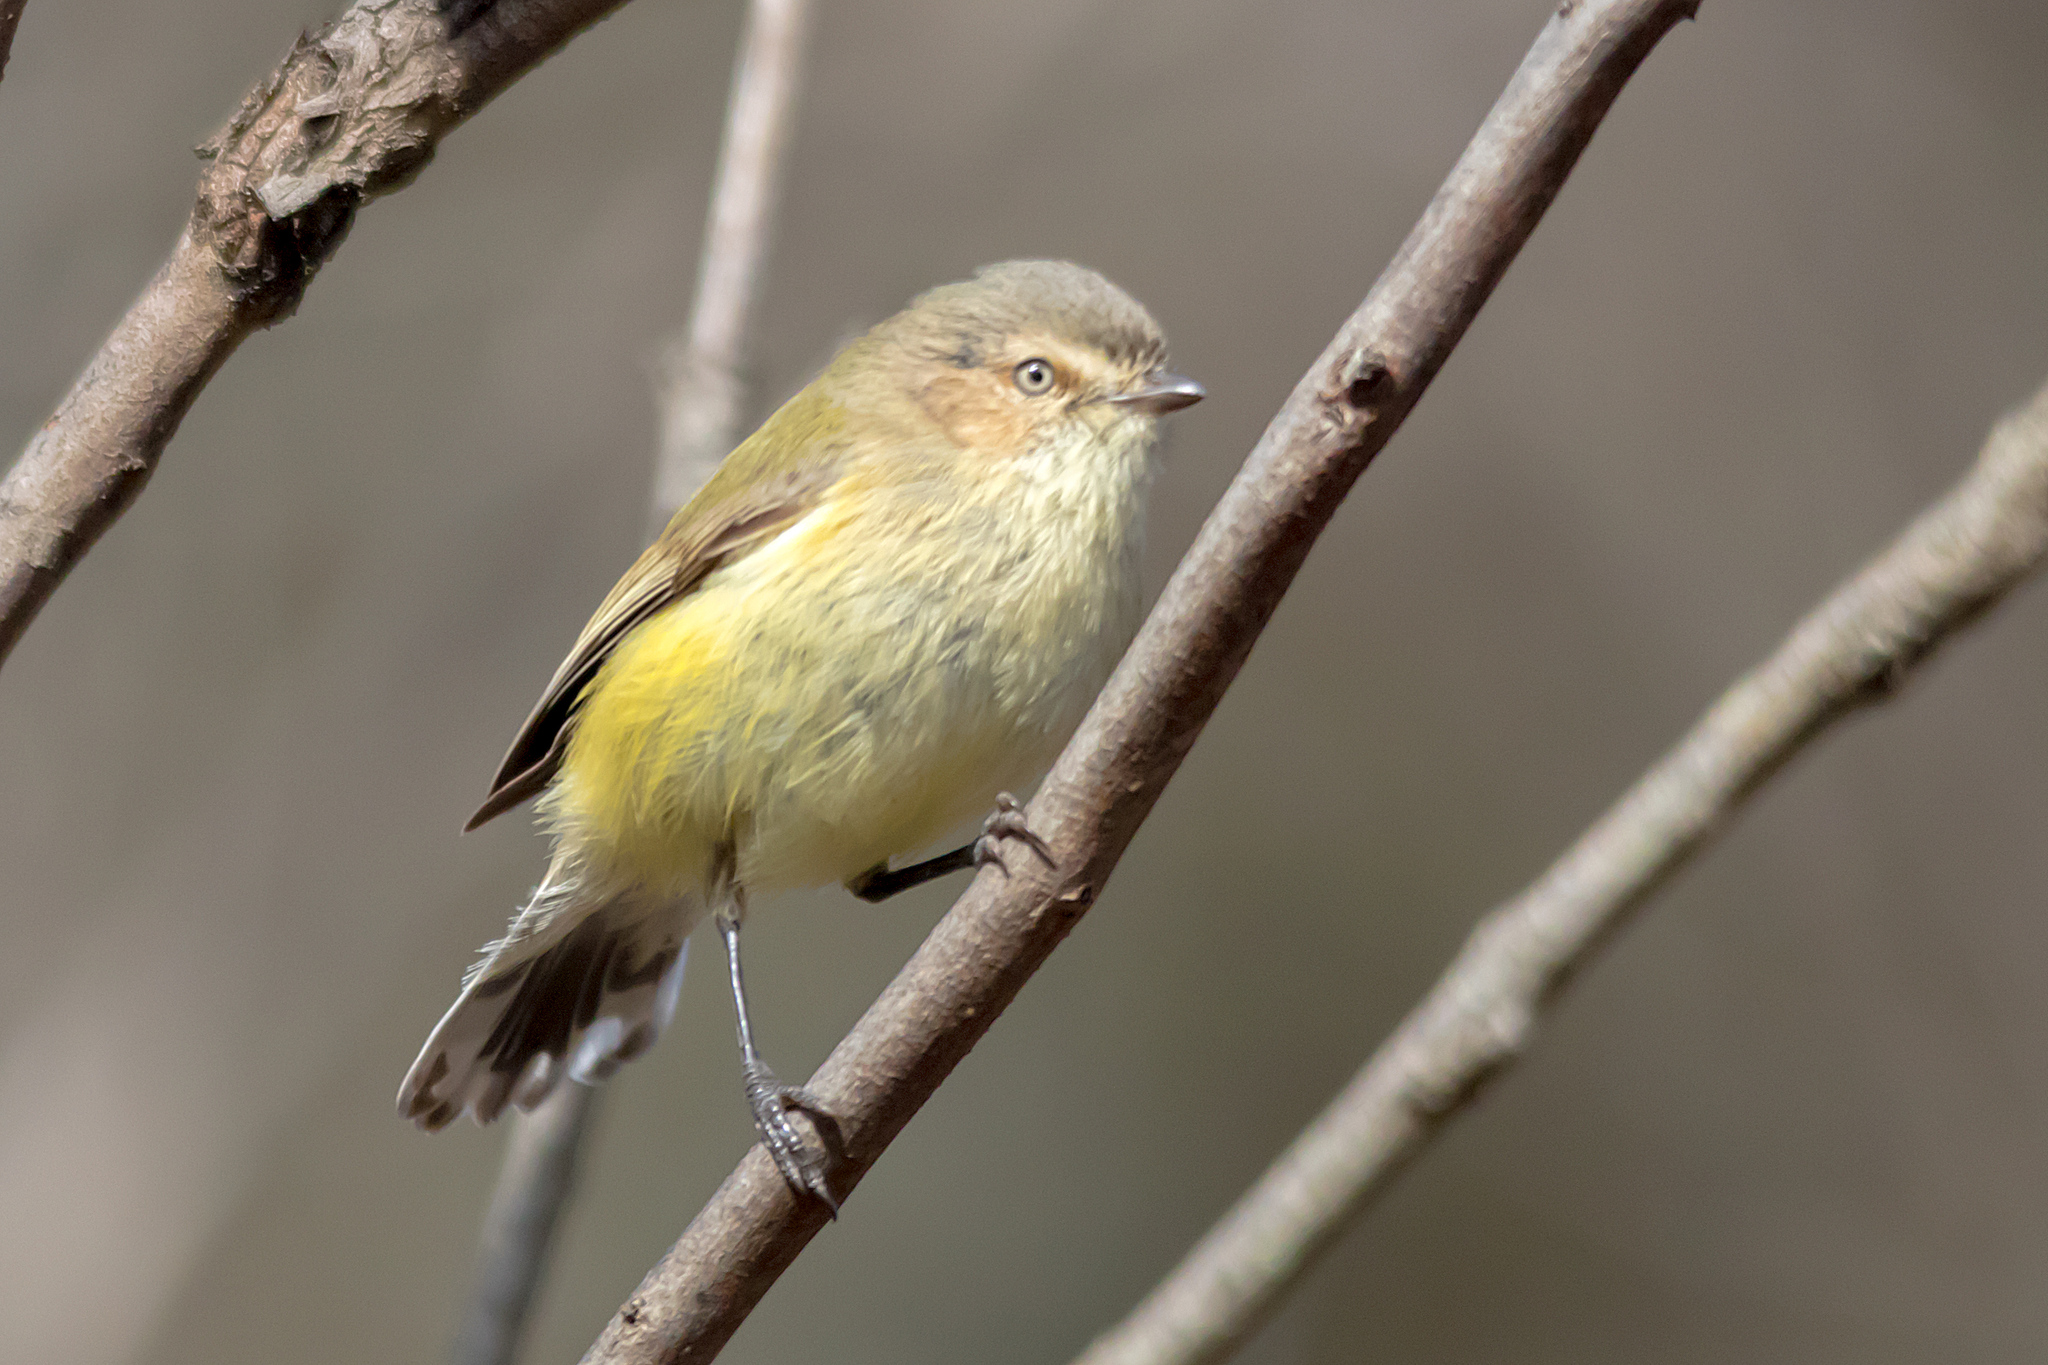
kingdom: Animalia
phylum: Chordata
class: Aves
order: Passeriformes
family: Acanthizidae
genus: Smicrornis
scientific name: Smicrornis brevirostris
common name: Weebill
